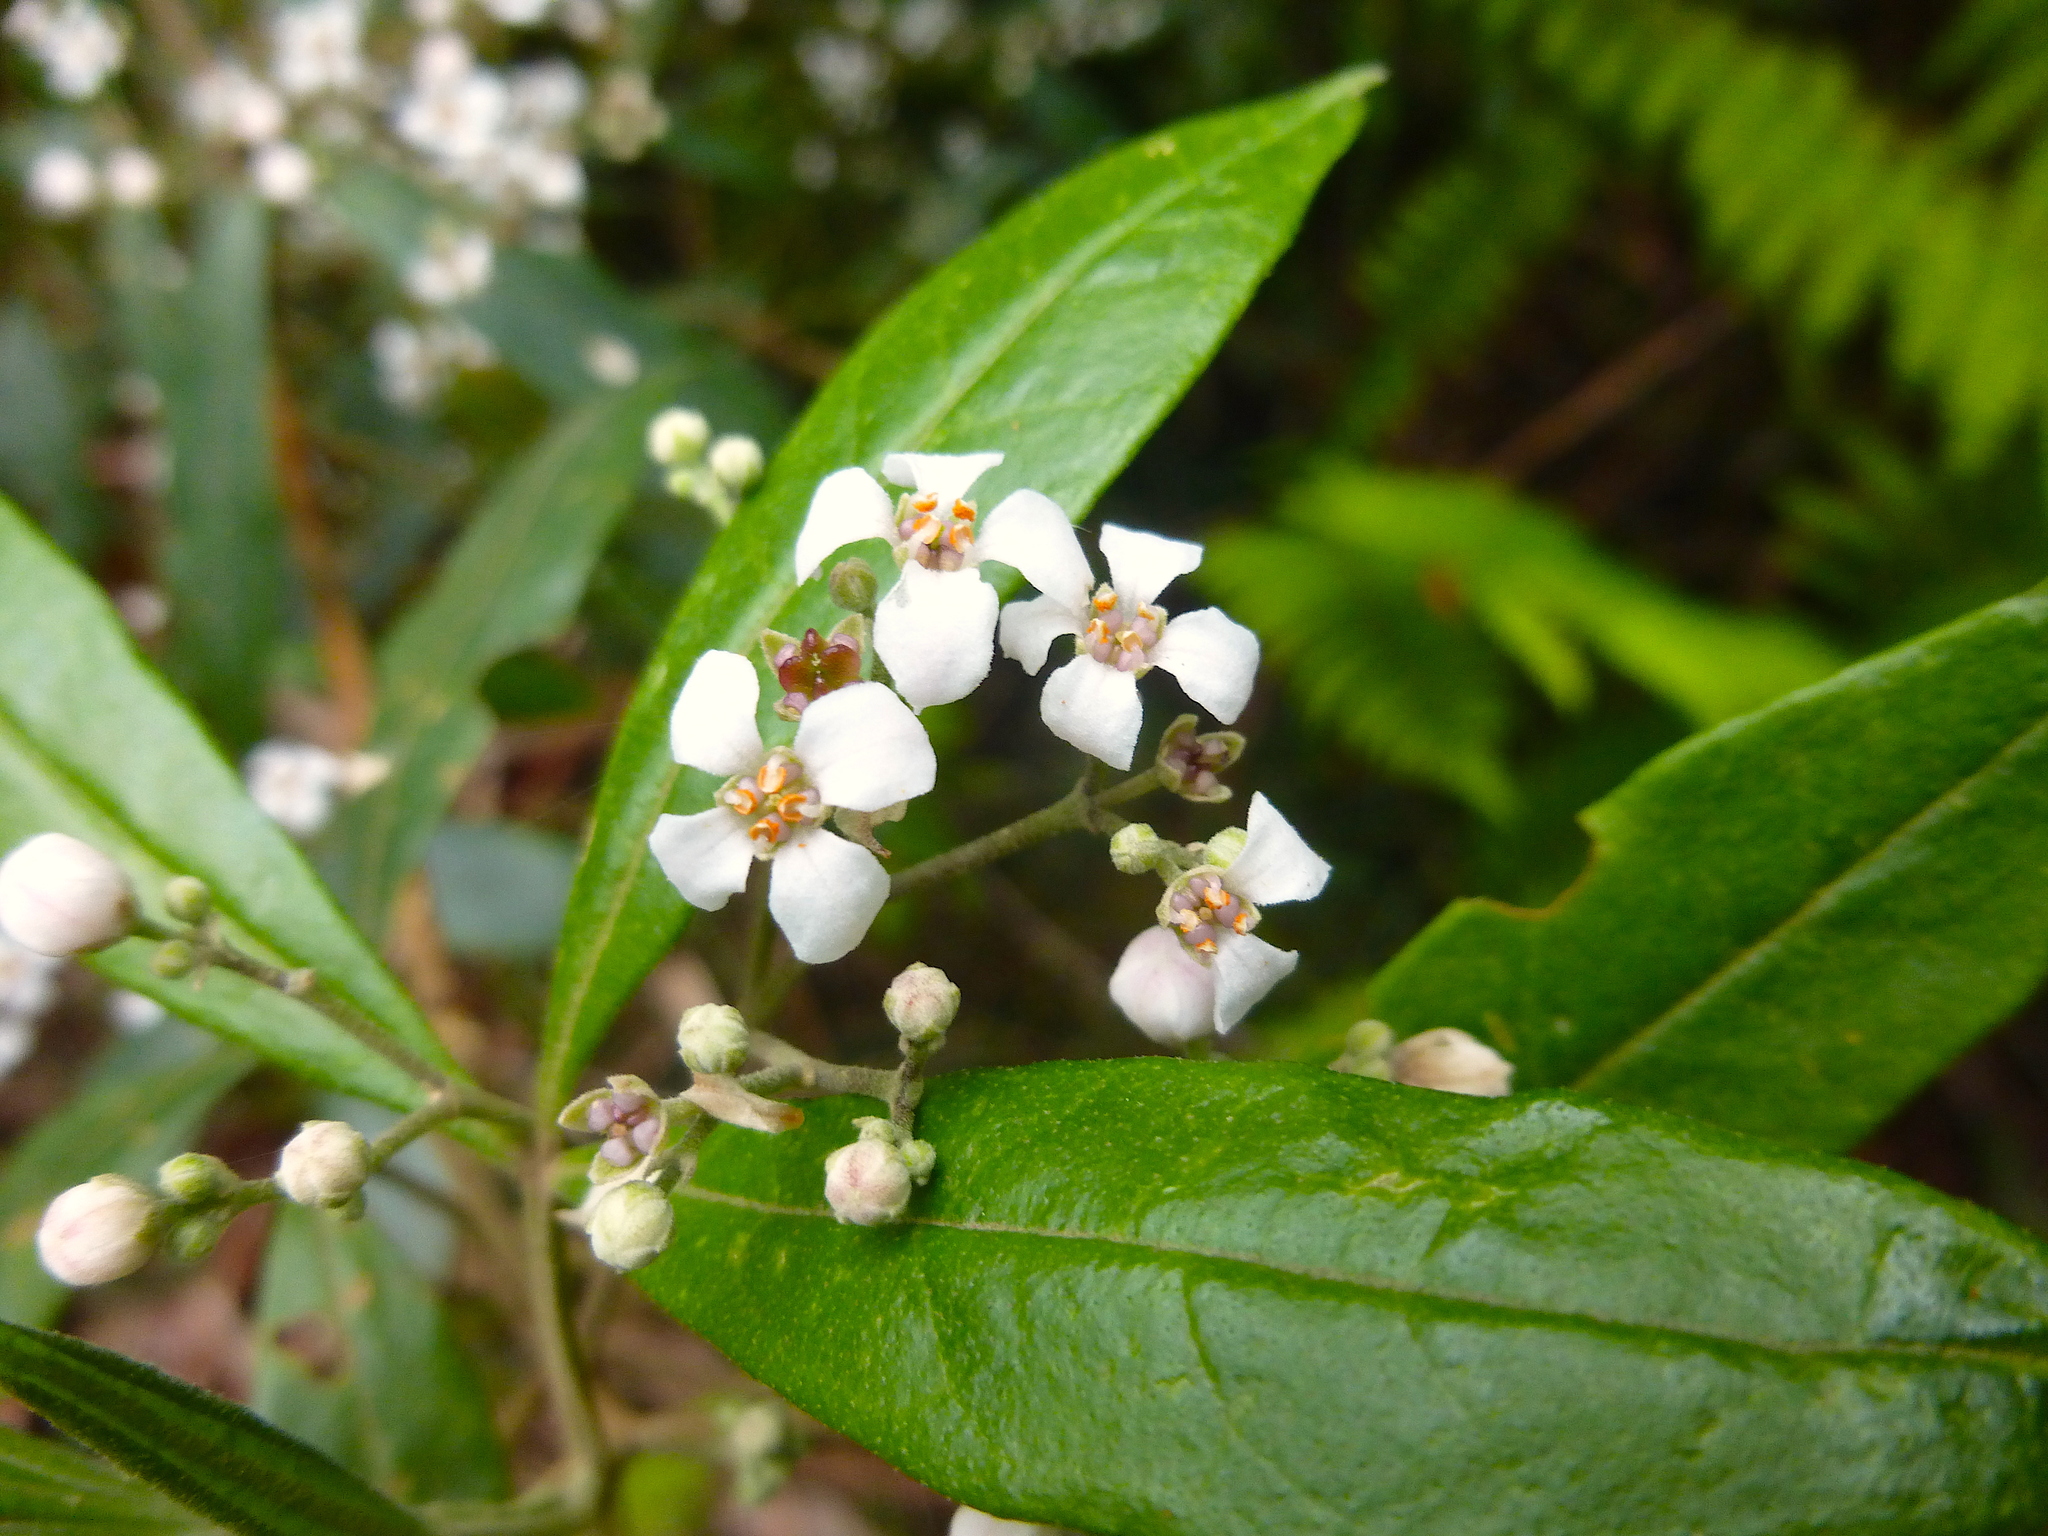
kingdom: Plantae
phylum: Tracheophyta
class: Magnoliopsida
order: Sapindales
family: Rutaceae
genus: Zieria
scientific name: Zieria arborescens
